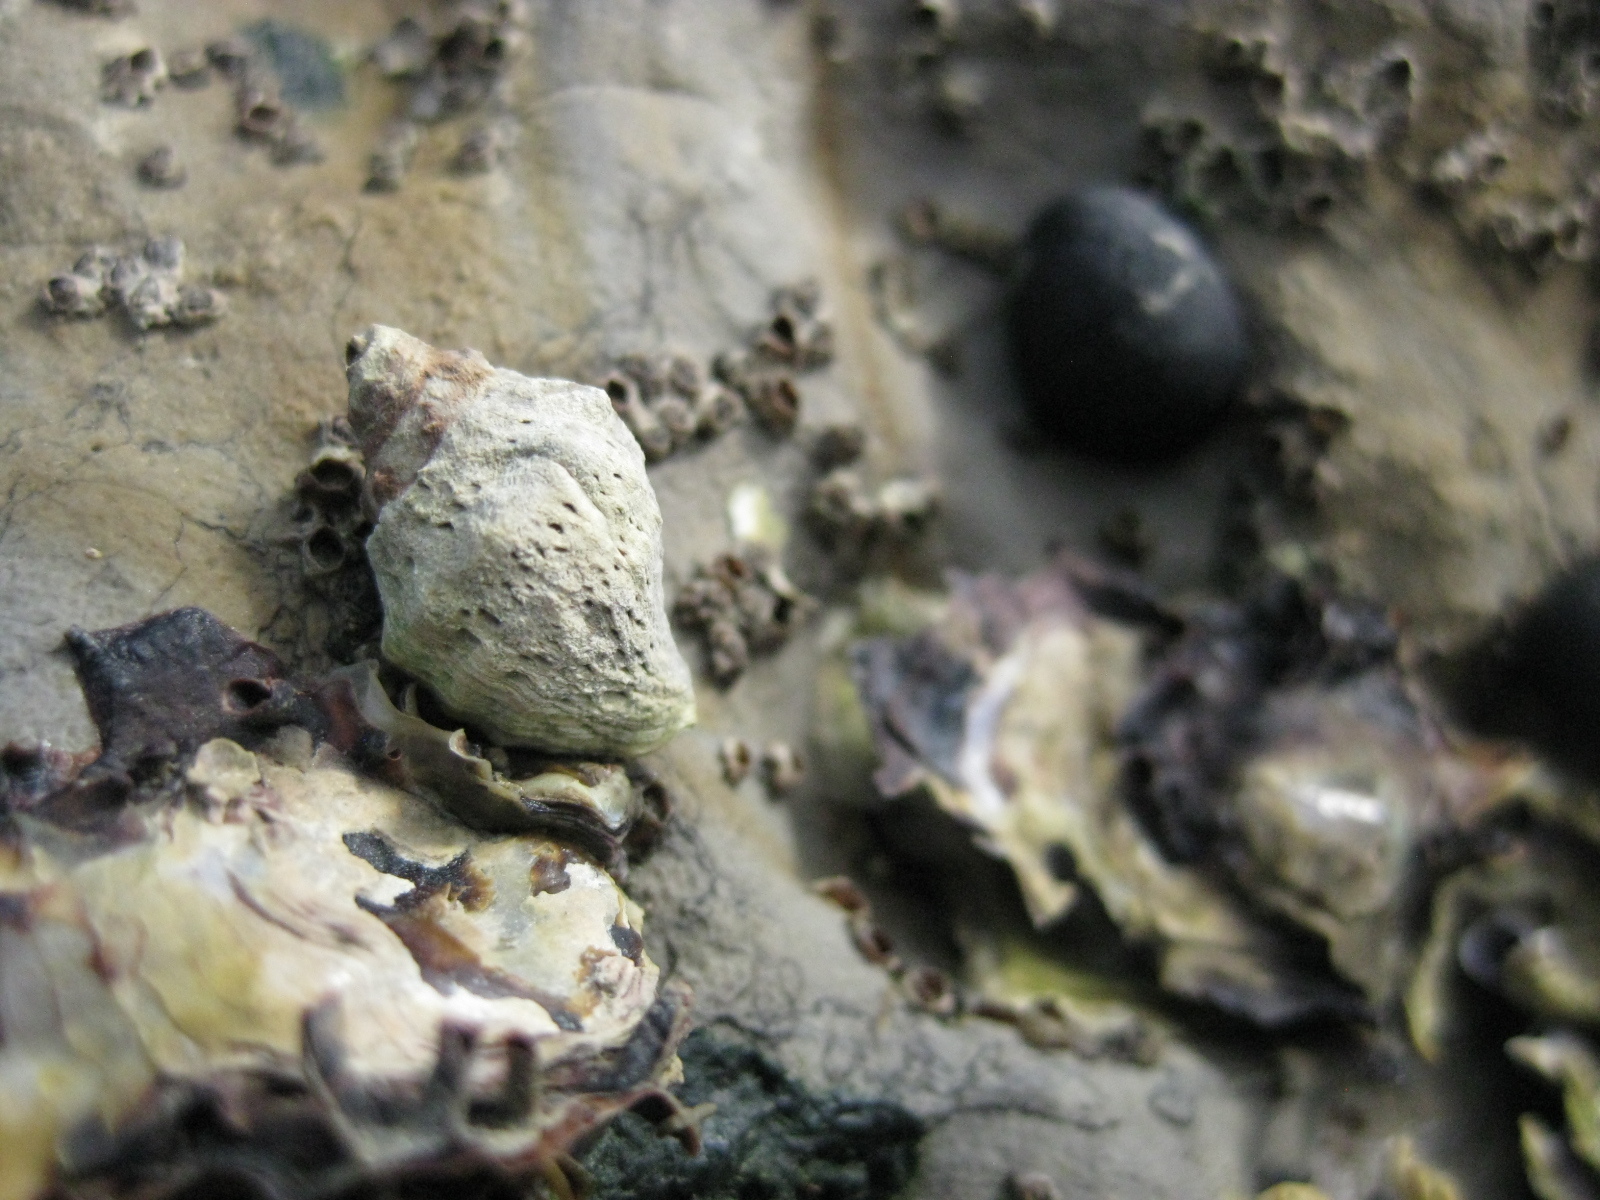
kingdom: Animalia
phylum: Mollusca
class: Gastropoda
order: Neogastropoda
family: Muricidae
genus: Haustrum
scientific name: Haustrum scobina
